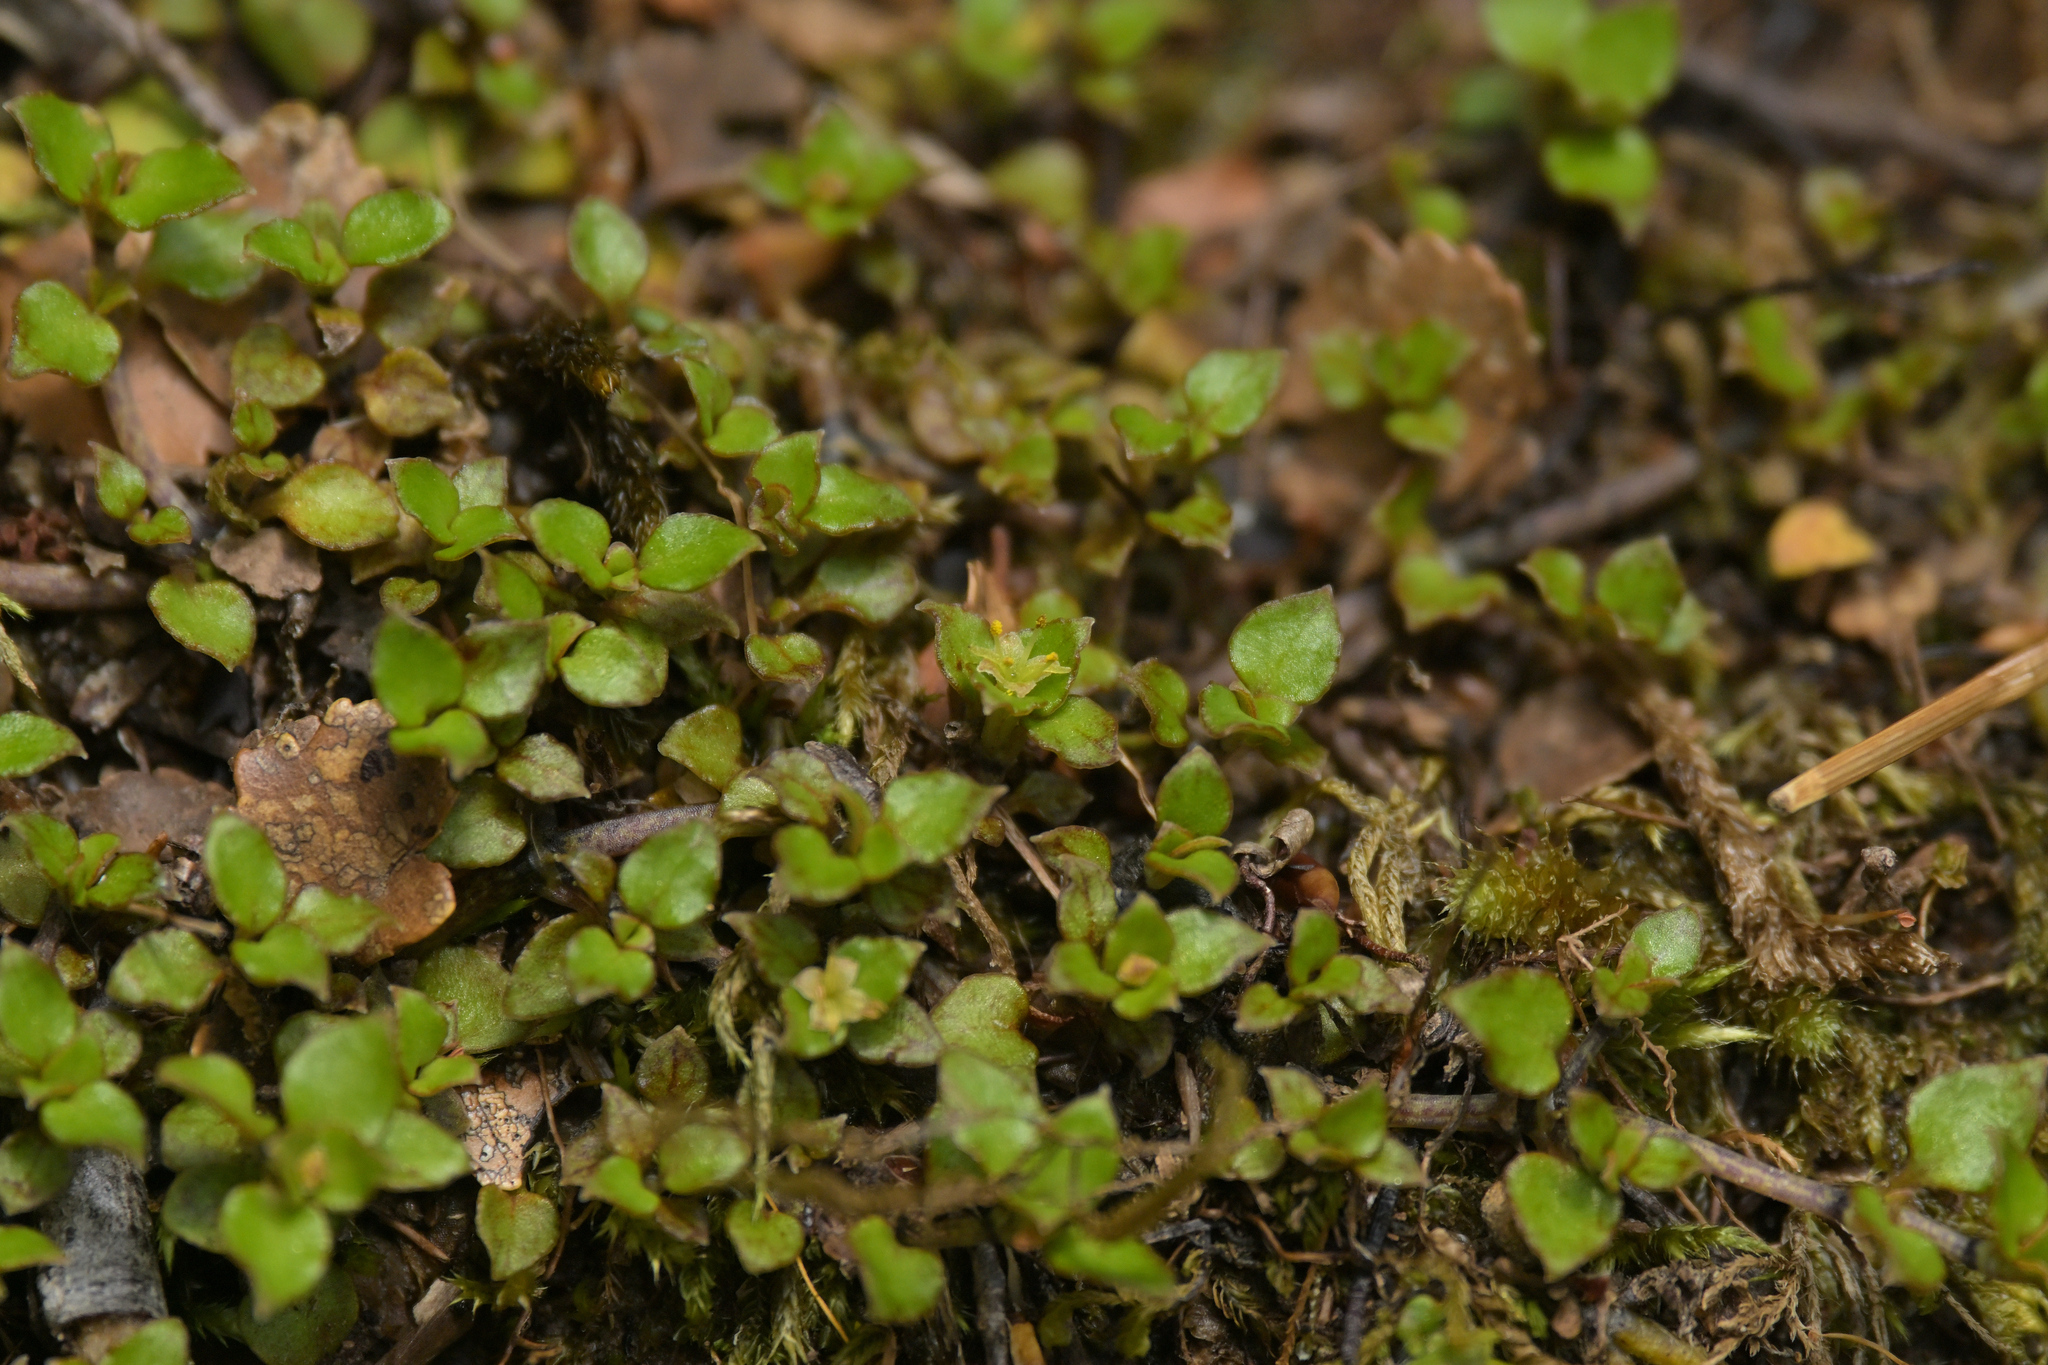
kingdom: Plantae
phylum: Tracheophyta
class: Magnoliopsida
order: Gentianales
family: Rubiaceae
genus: Nertera
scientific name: Nertera granadensis
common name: Beadplant
